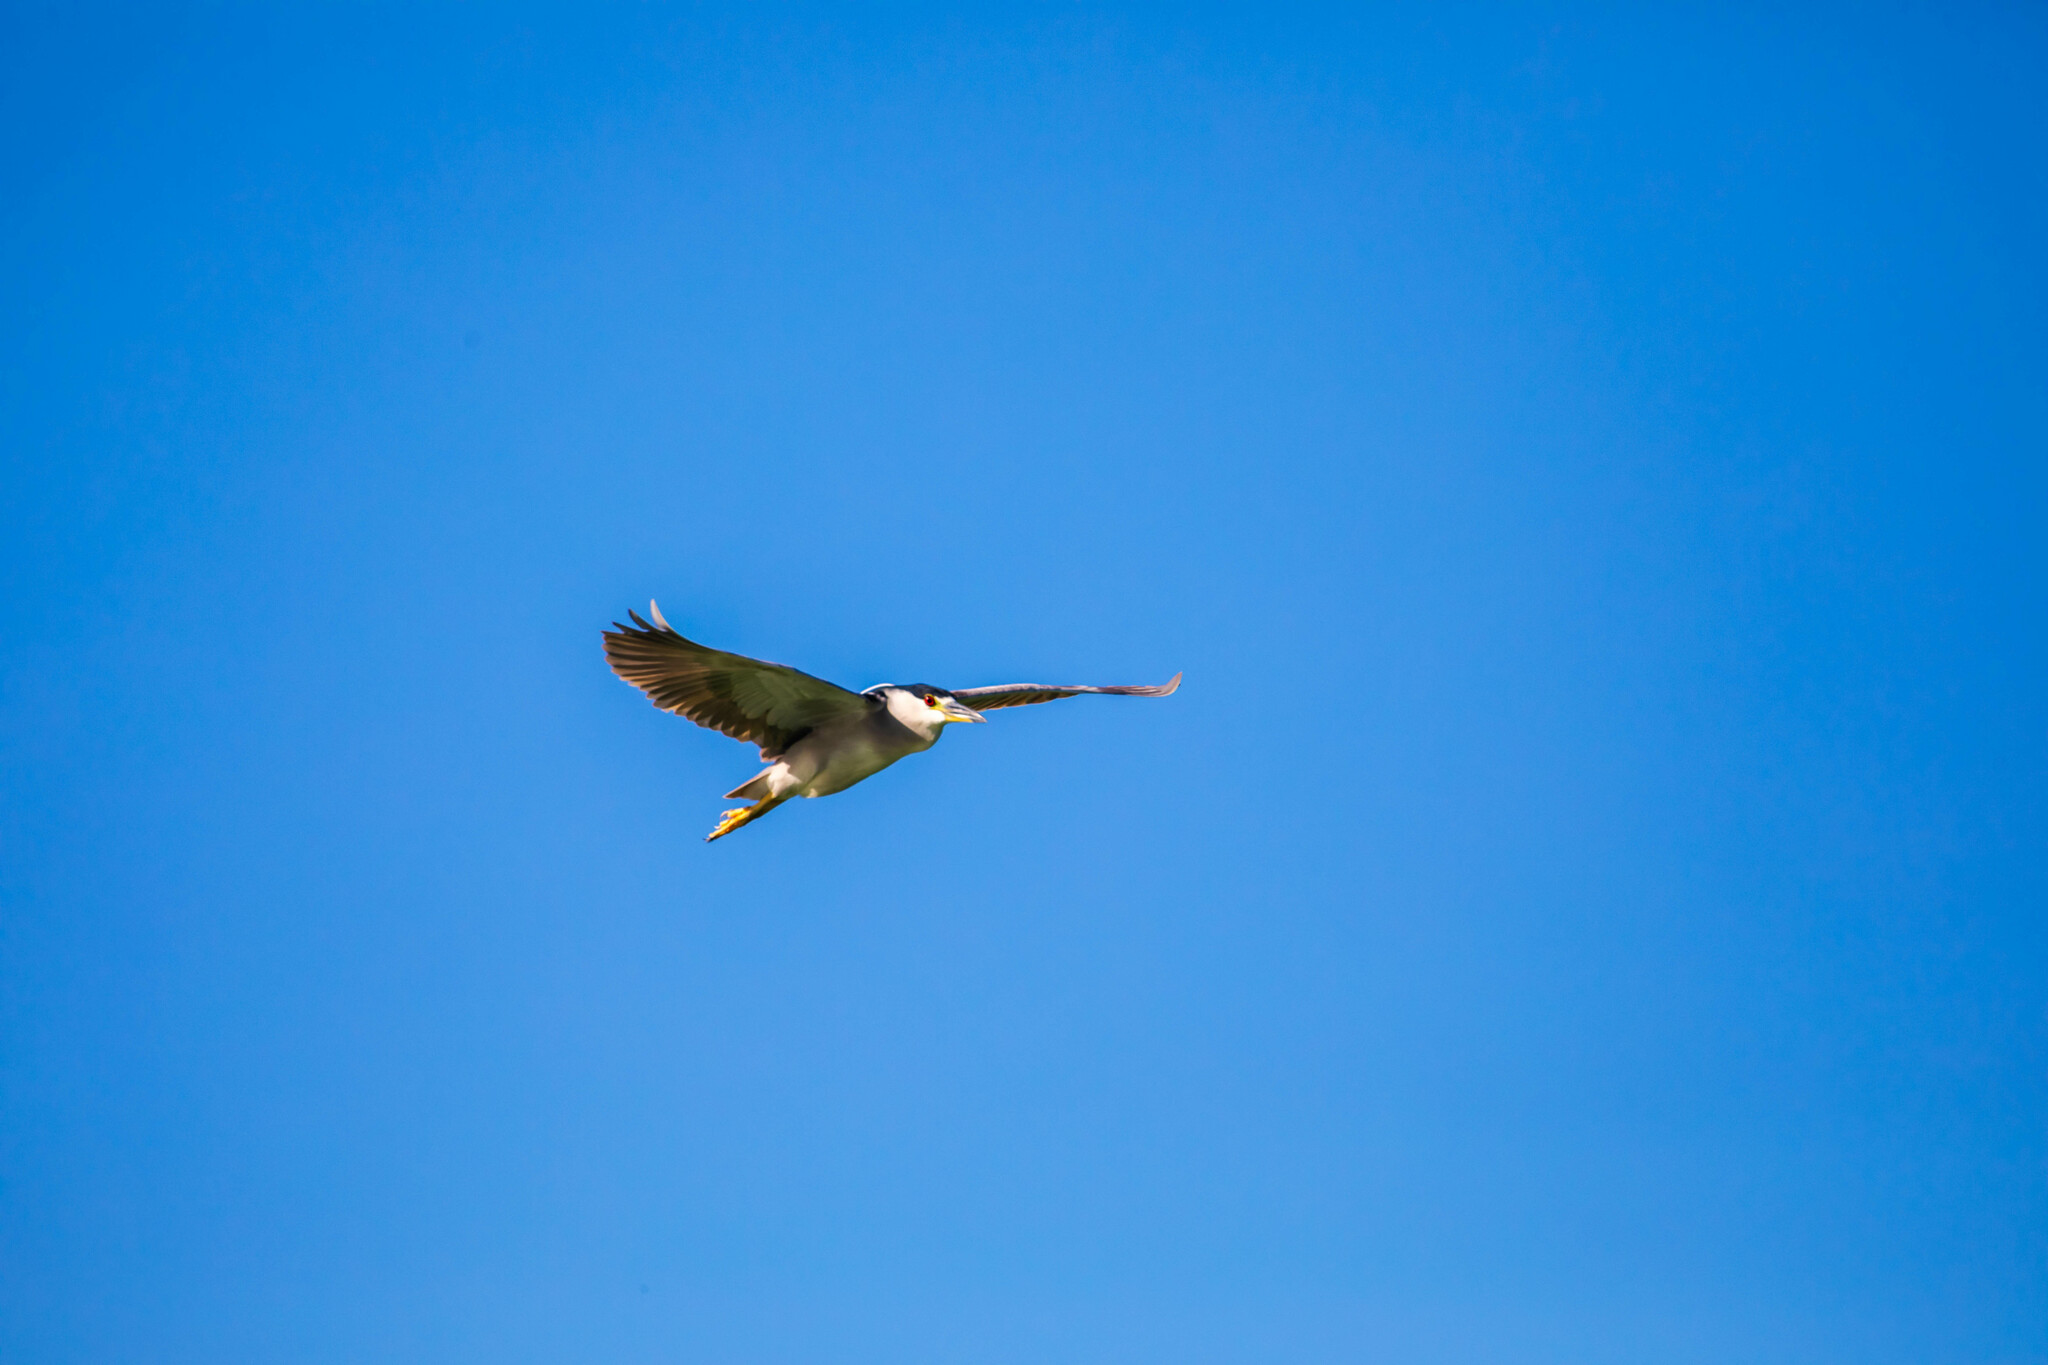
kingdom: Animalia
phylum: Chordata
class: Aves
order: Pelecaniformes
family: Ardeidae
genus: Nycticorax
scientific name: Nycticorax nycticorax
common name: Black-crowned night heron
